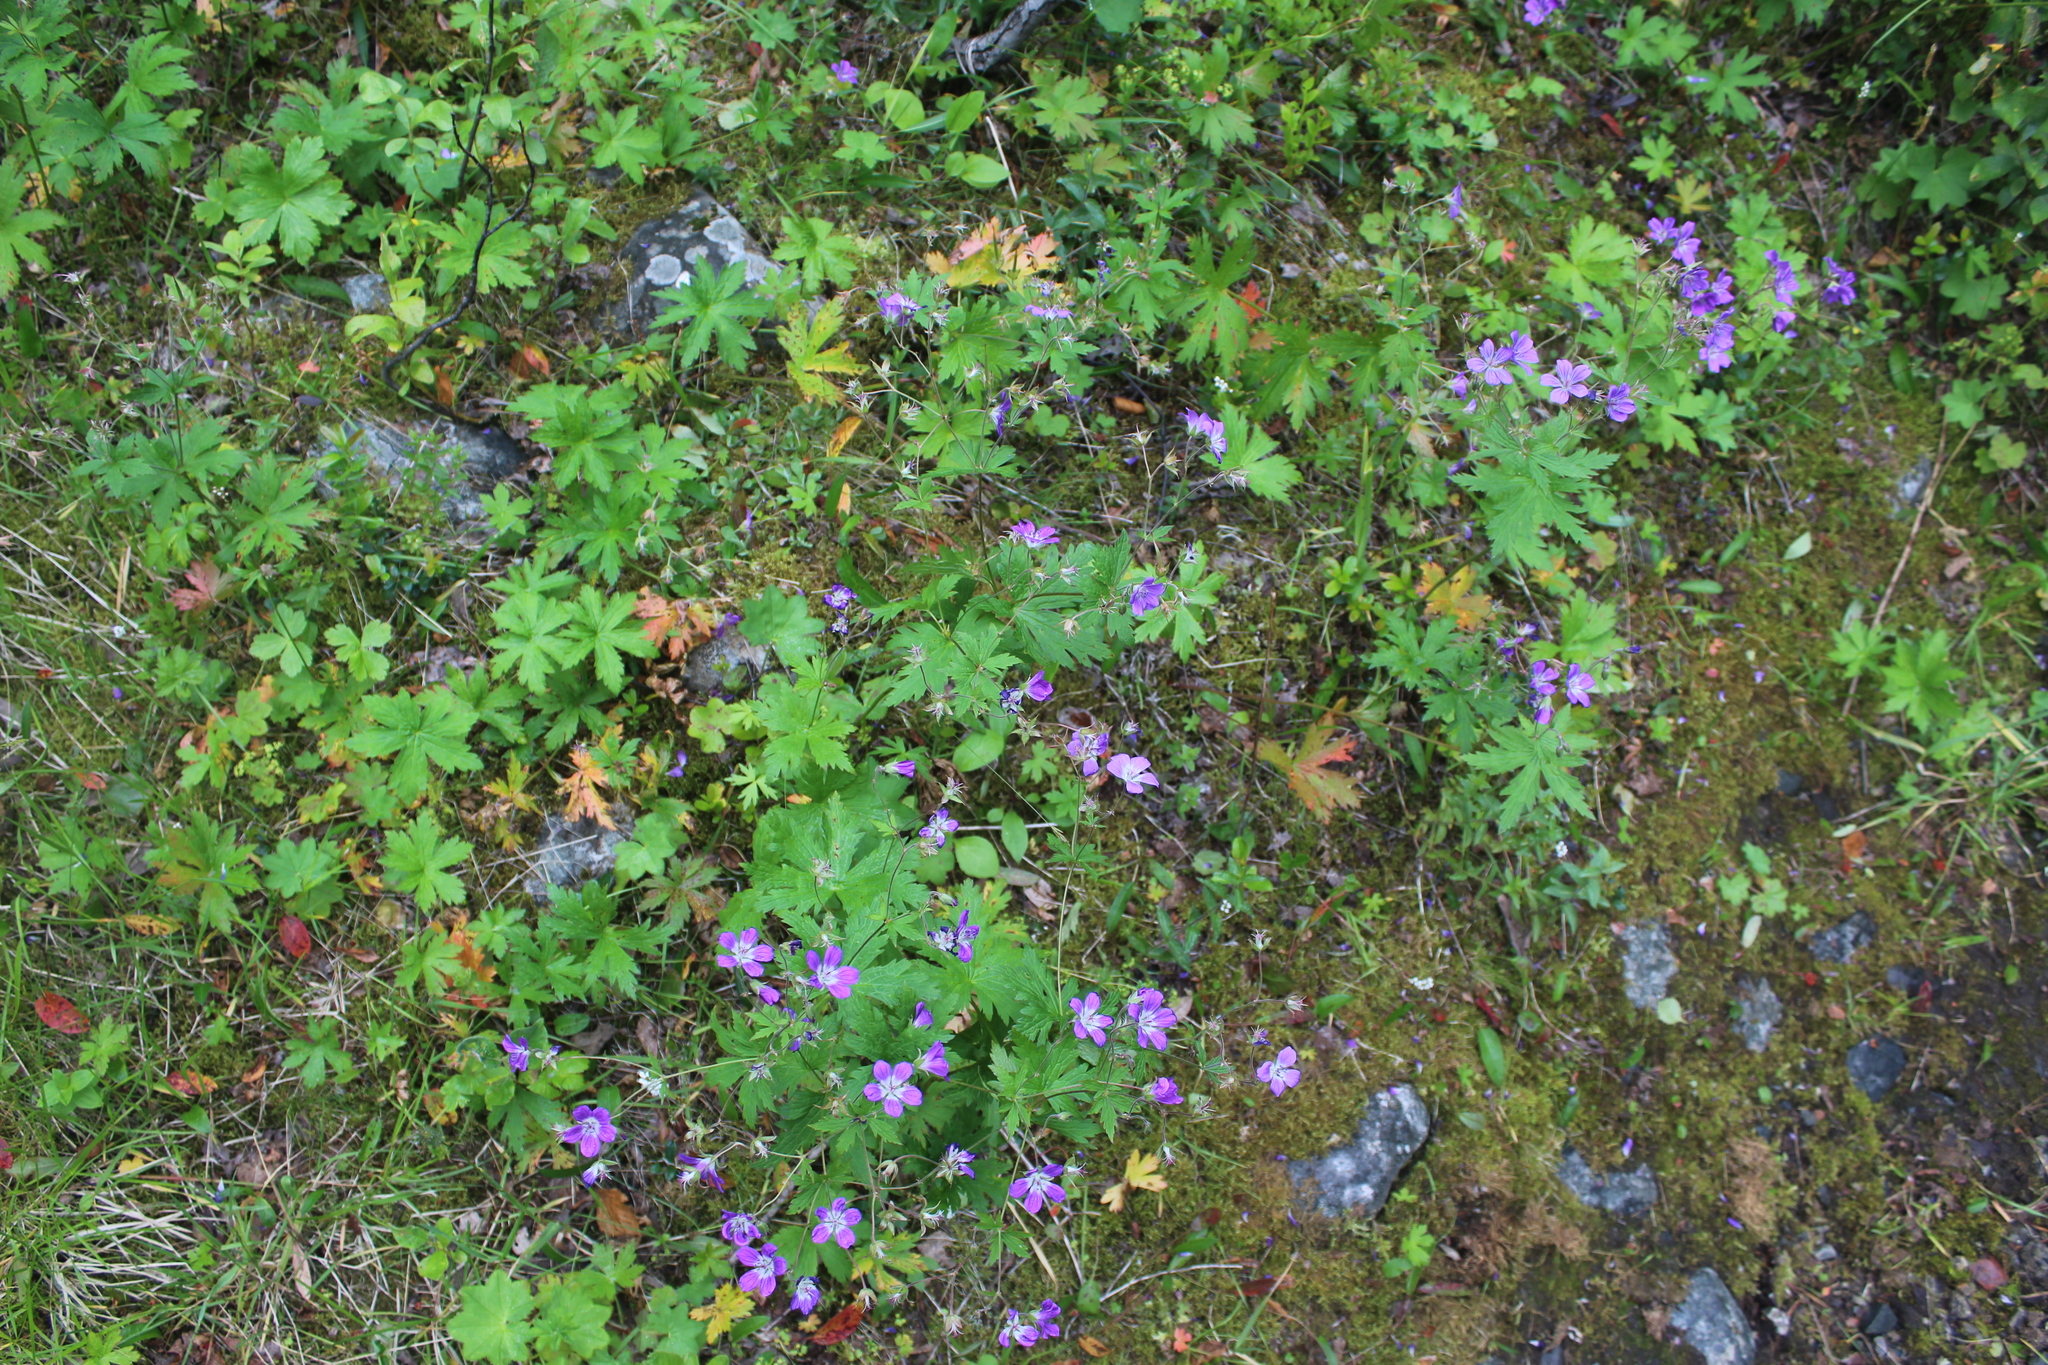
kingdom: Plantae
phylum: Tracheophyta
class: Magnoliopsida
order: Geraniales
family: Geraniaceae
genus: Geranium
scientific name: Geranium sylvaticum
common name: Wood crane's-bill
